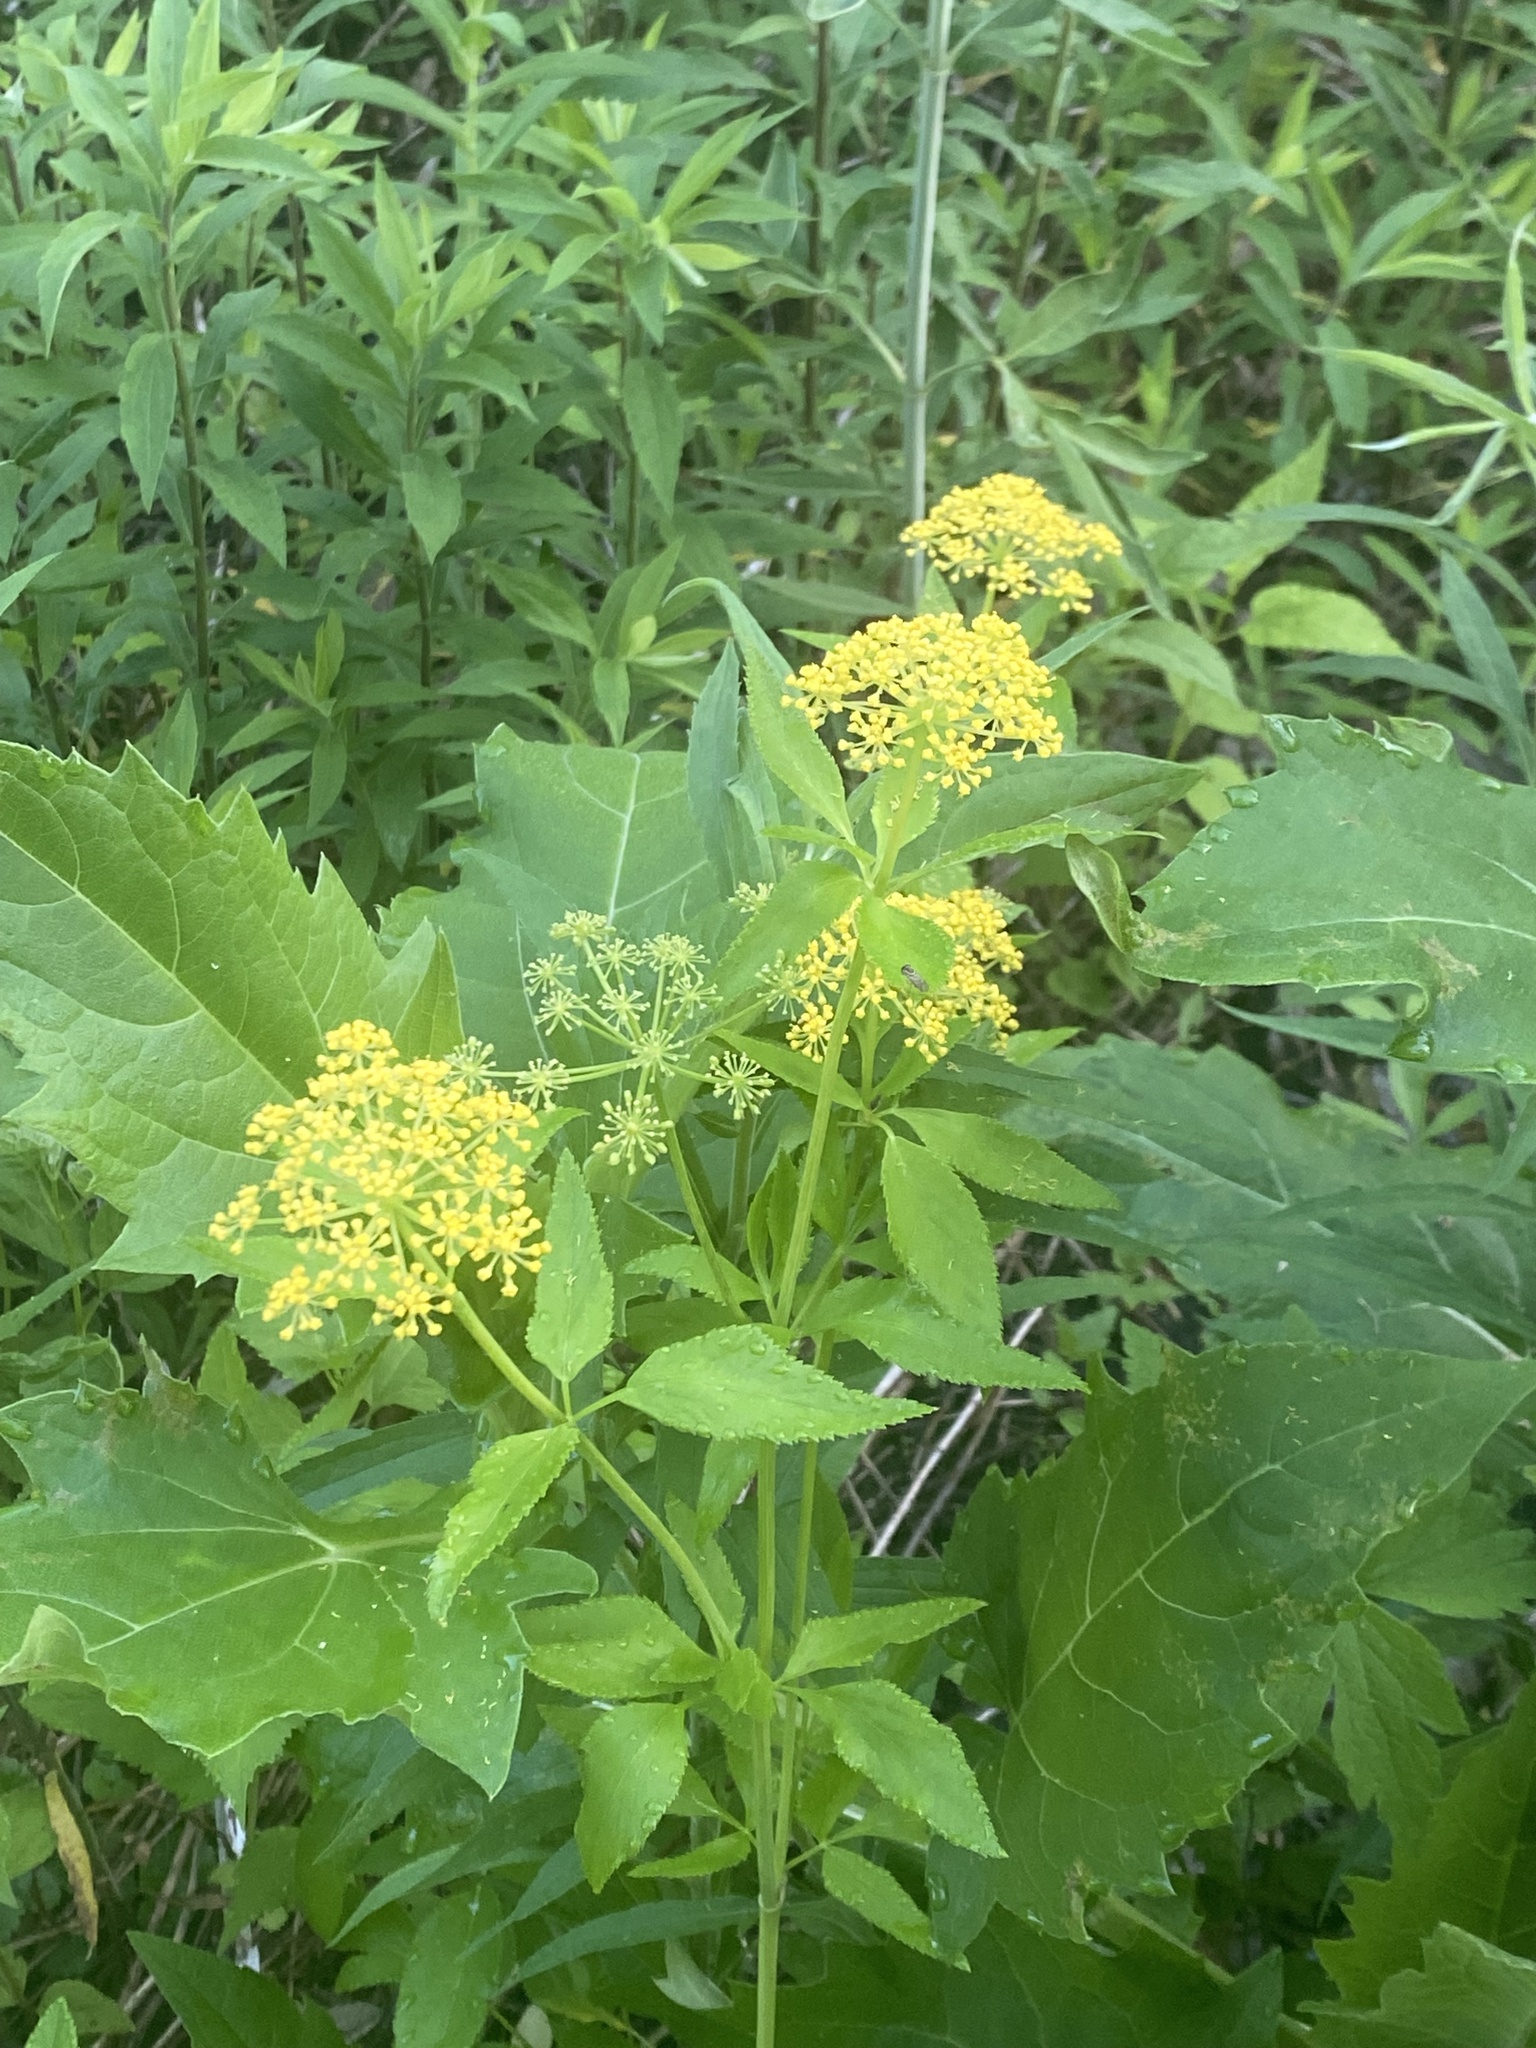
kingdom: Plantae
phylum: Tracheophyta
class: Magnoliopsida
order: Apiales
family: Apiaceae
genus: Zizia
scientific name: Zizia aurea
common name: Golden alexanders
